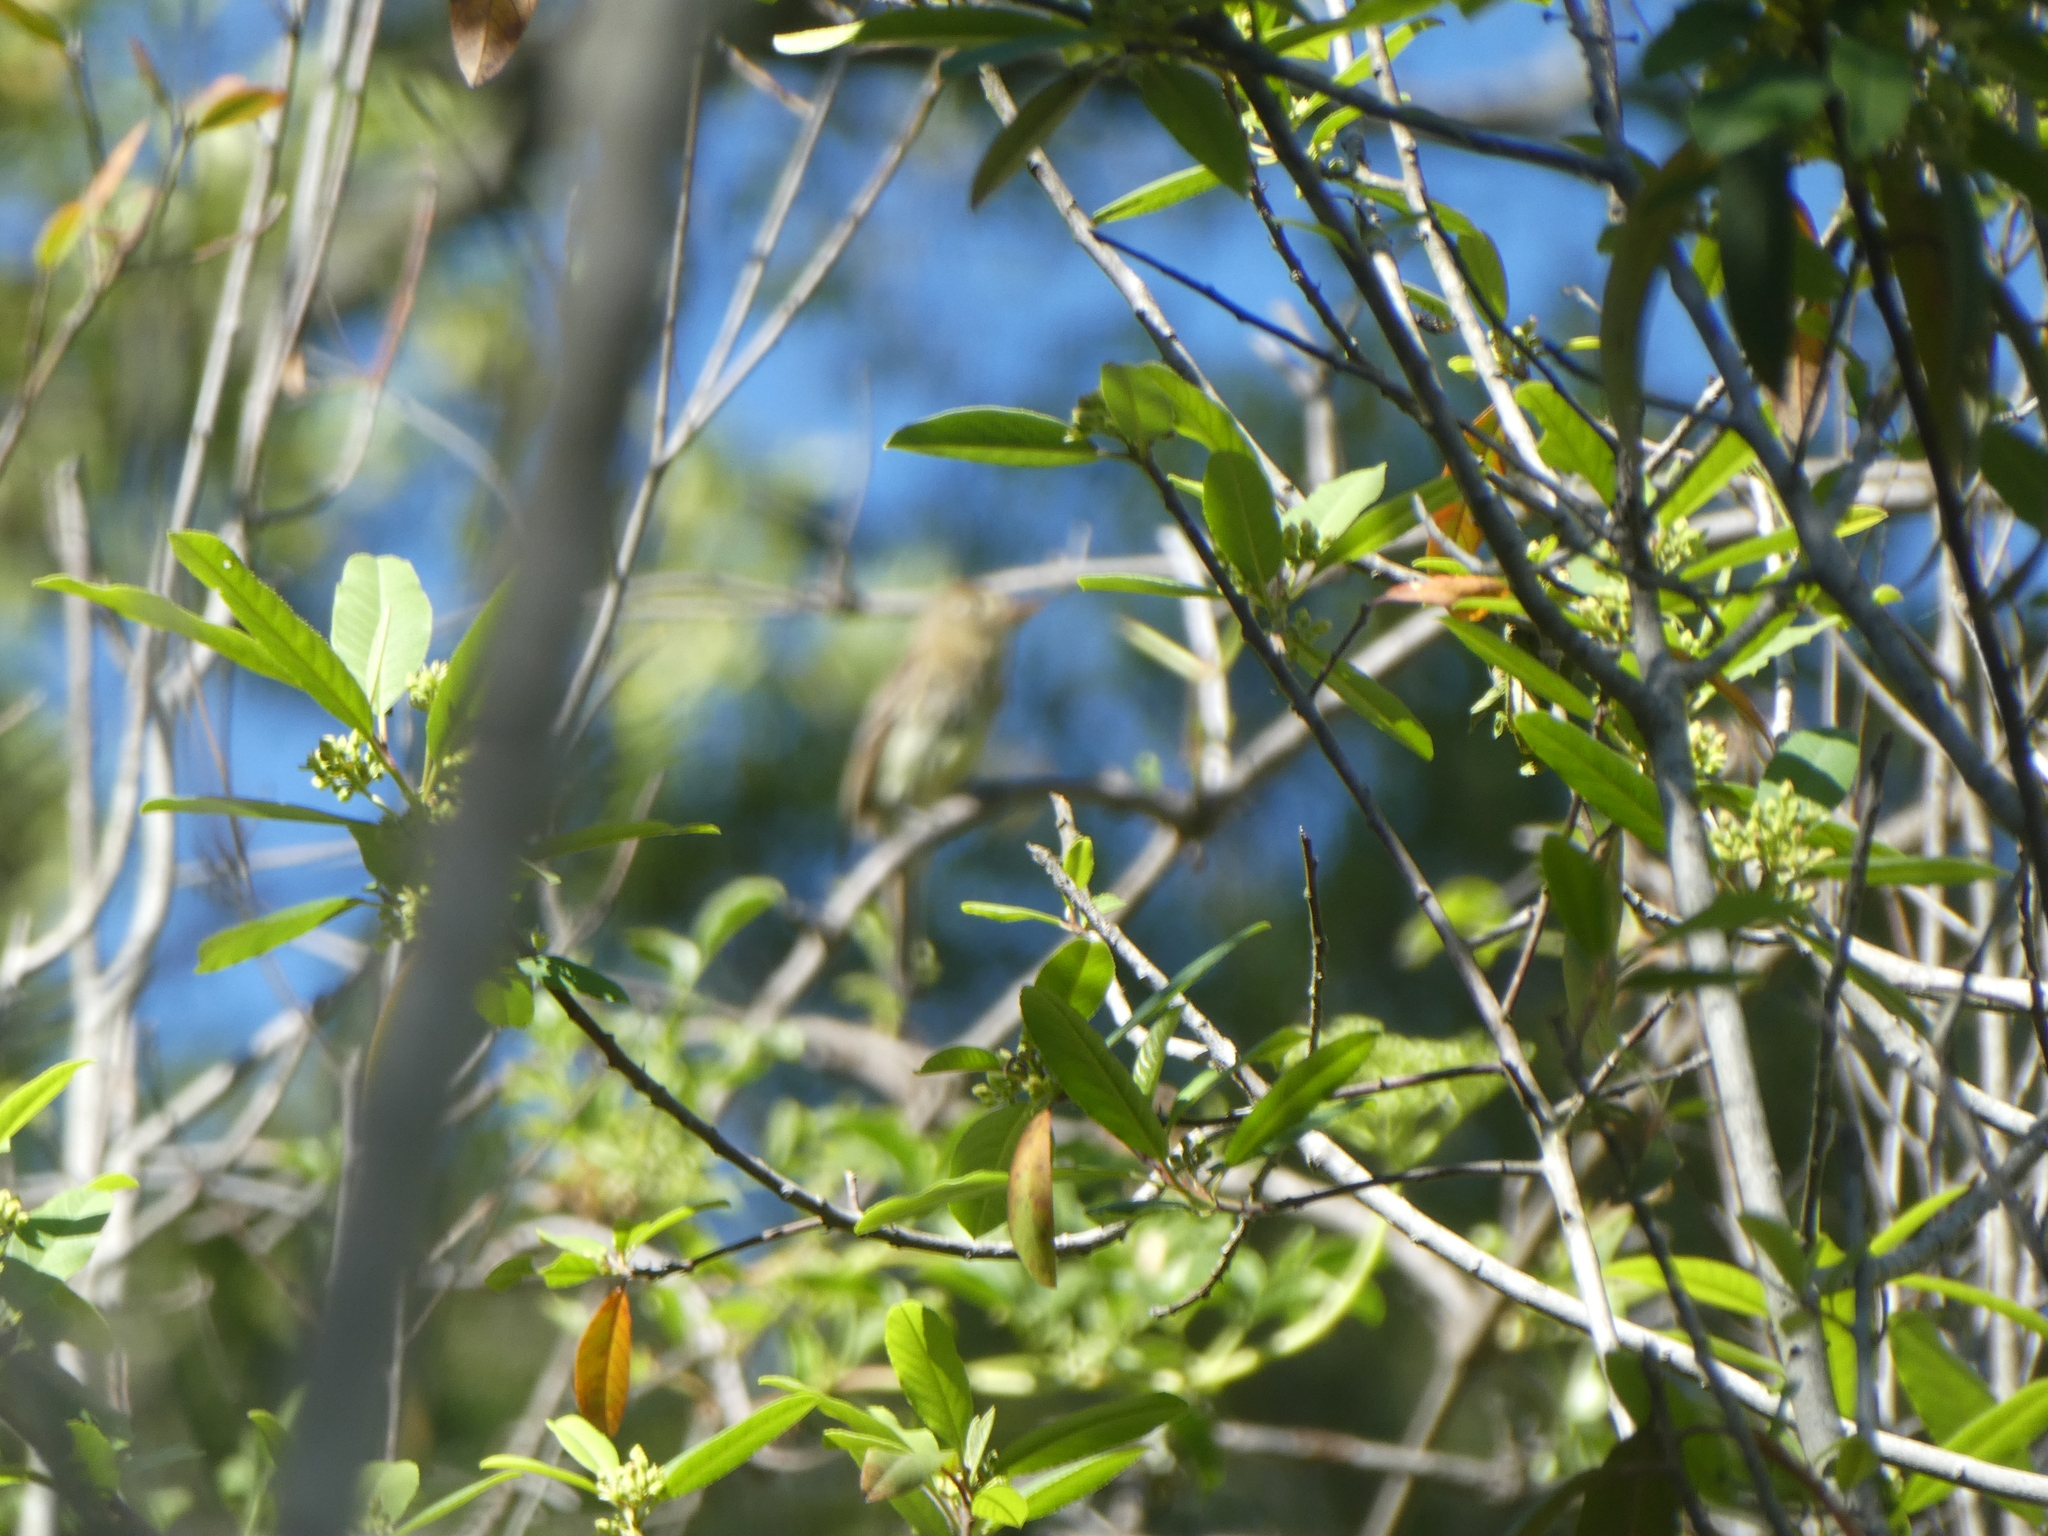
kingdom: Animalia
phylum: Chordata
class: Aves
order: Passeriformes
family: Tyrannidae
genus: Empidonax
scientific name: Empidonax difficilis
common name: Pacific-slope flycatcher
